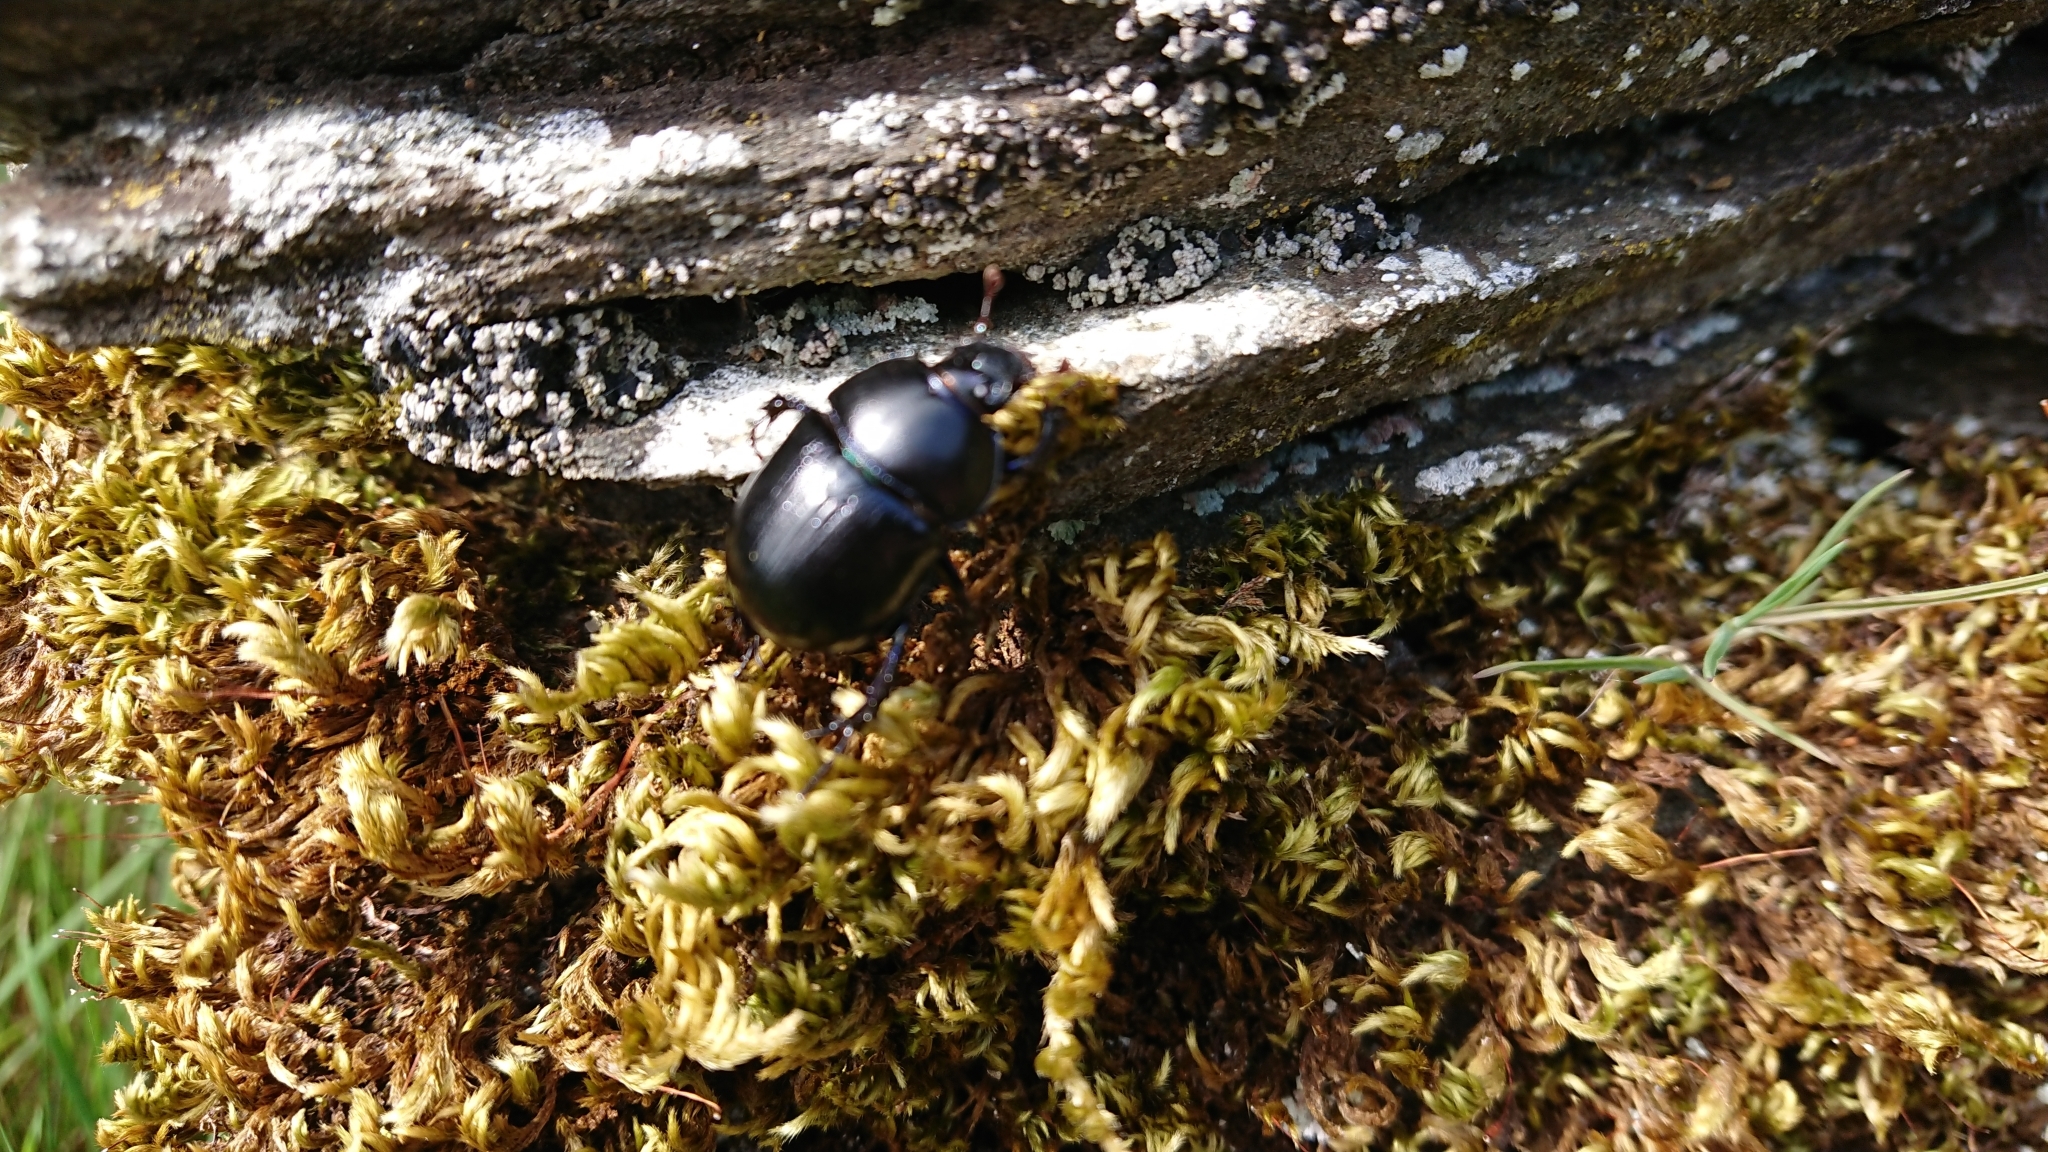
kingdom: Animalia
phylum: Arthropoda
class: Insecta
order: Coleoptera
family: Geotrupidae
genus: Anoplotrupes
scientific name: Anoplotrupes stercorosus
